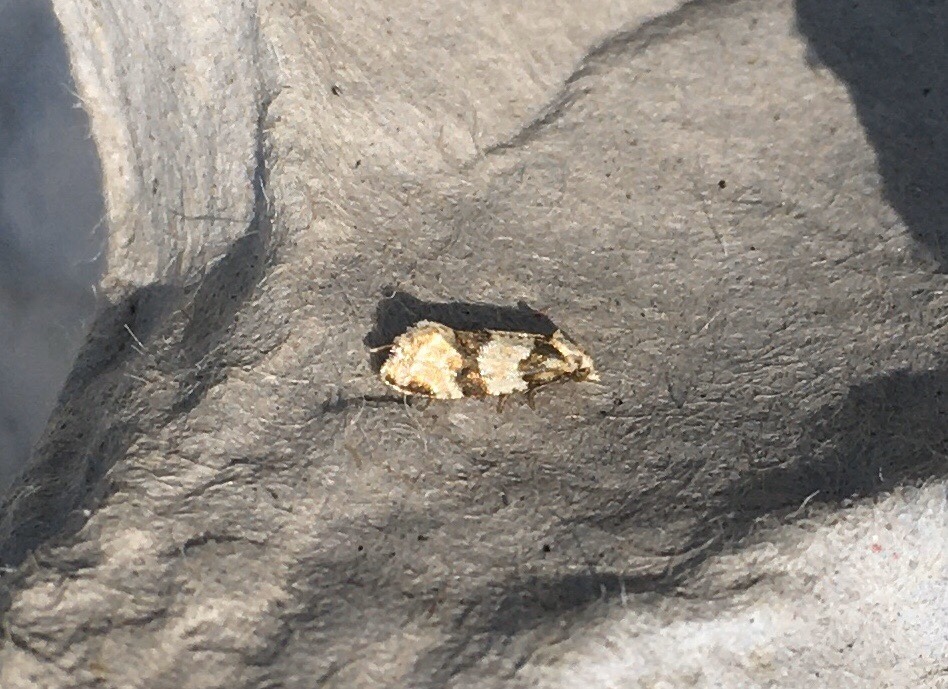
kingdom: Animalia
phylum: Arthropoda
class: Insecta
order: Lepidoptera
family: Tortricidae
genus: Aethes
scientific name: Aethes argentilimitana
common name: Silver-bordered aethes
